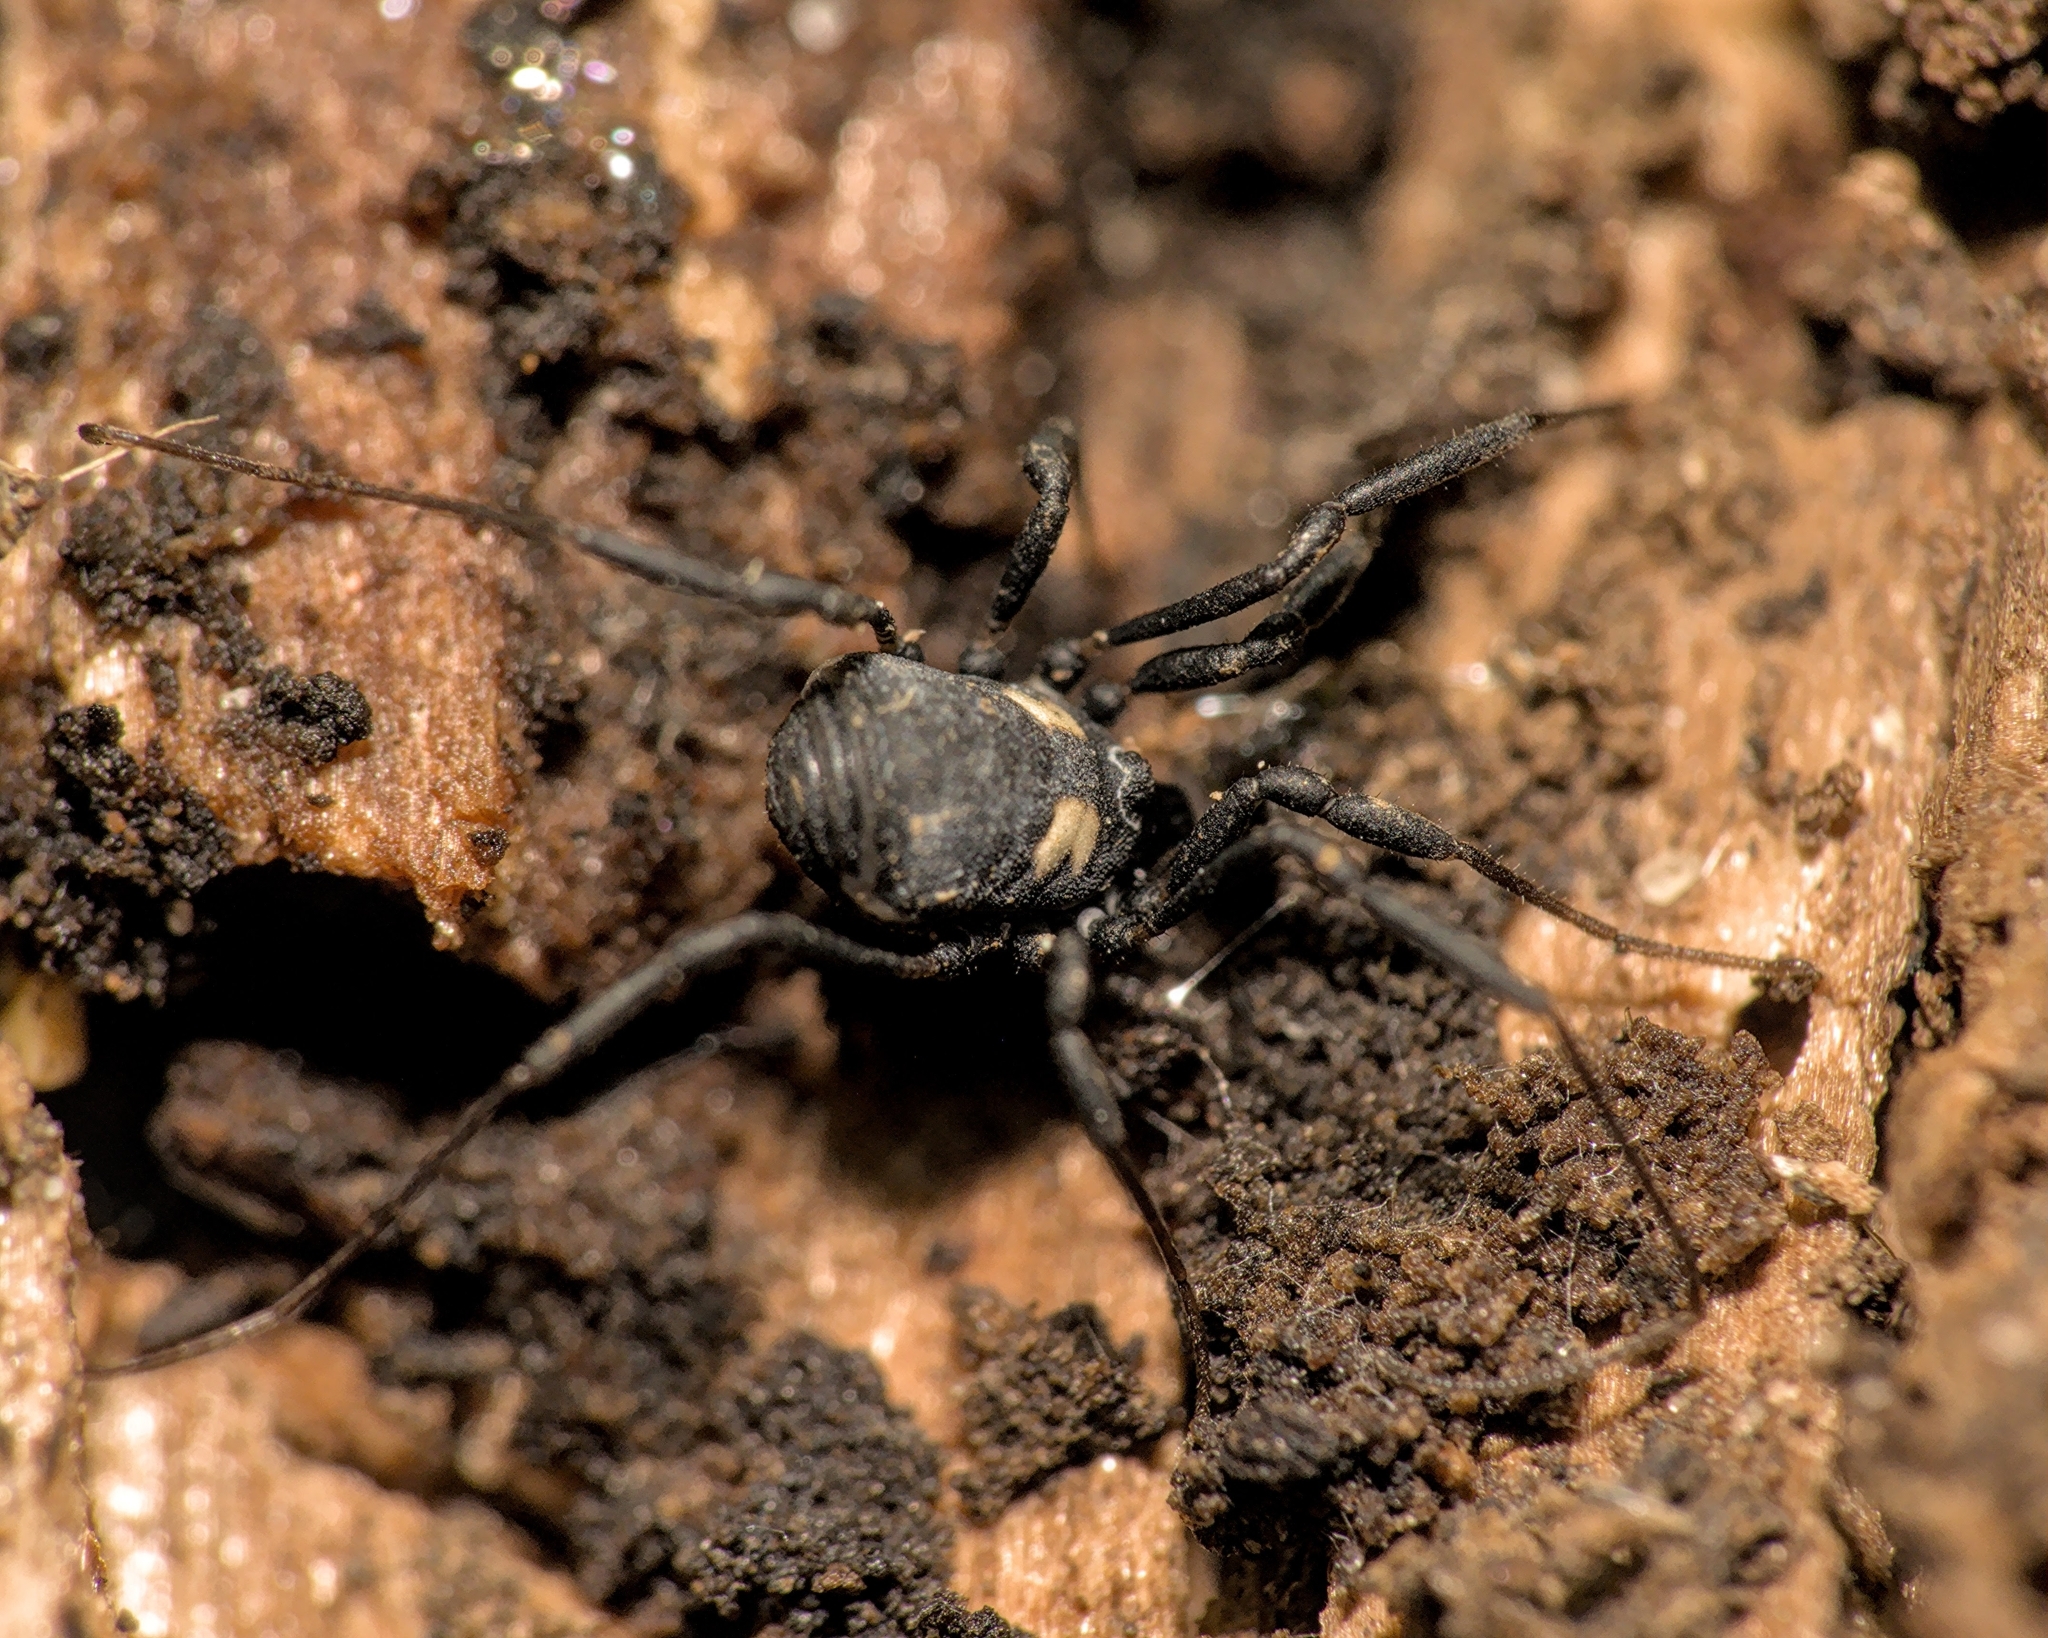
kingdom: Animalia
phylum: Arthropoda
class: Arachnida
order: Opiliones
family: Nemastomatidae
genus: Nemastoma
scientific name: Nemastoma bimaculatum
